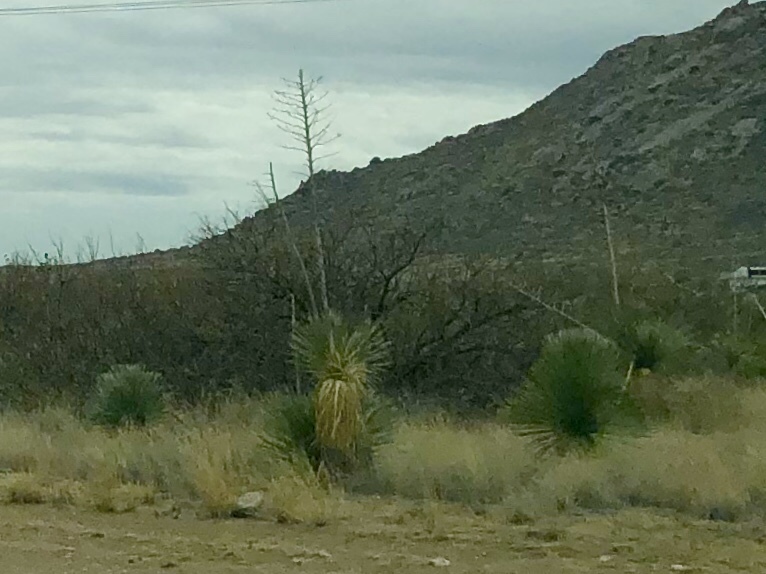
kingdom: Plantae
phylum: Tracheophyta
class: Liliopsida
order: Asparagales
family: Asparagaceae
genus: Yucca
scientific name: Yucca elata
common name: Palmella
